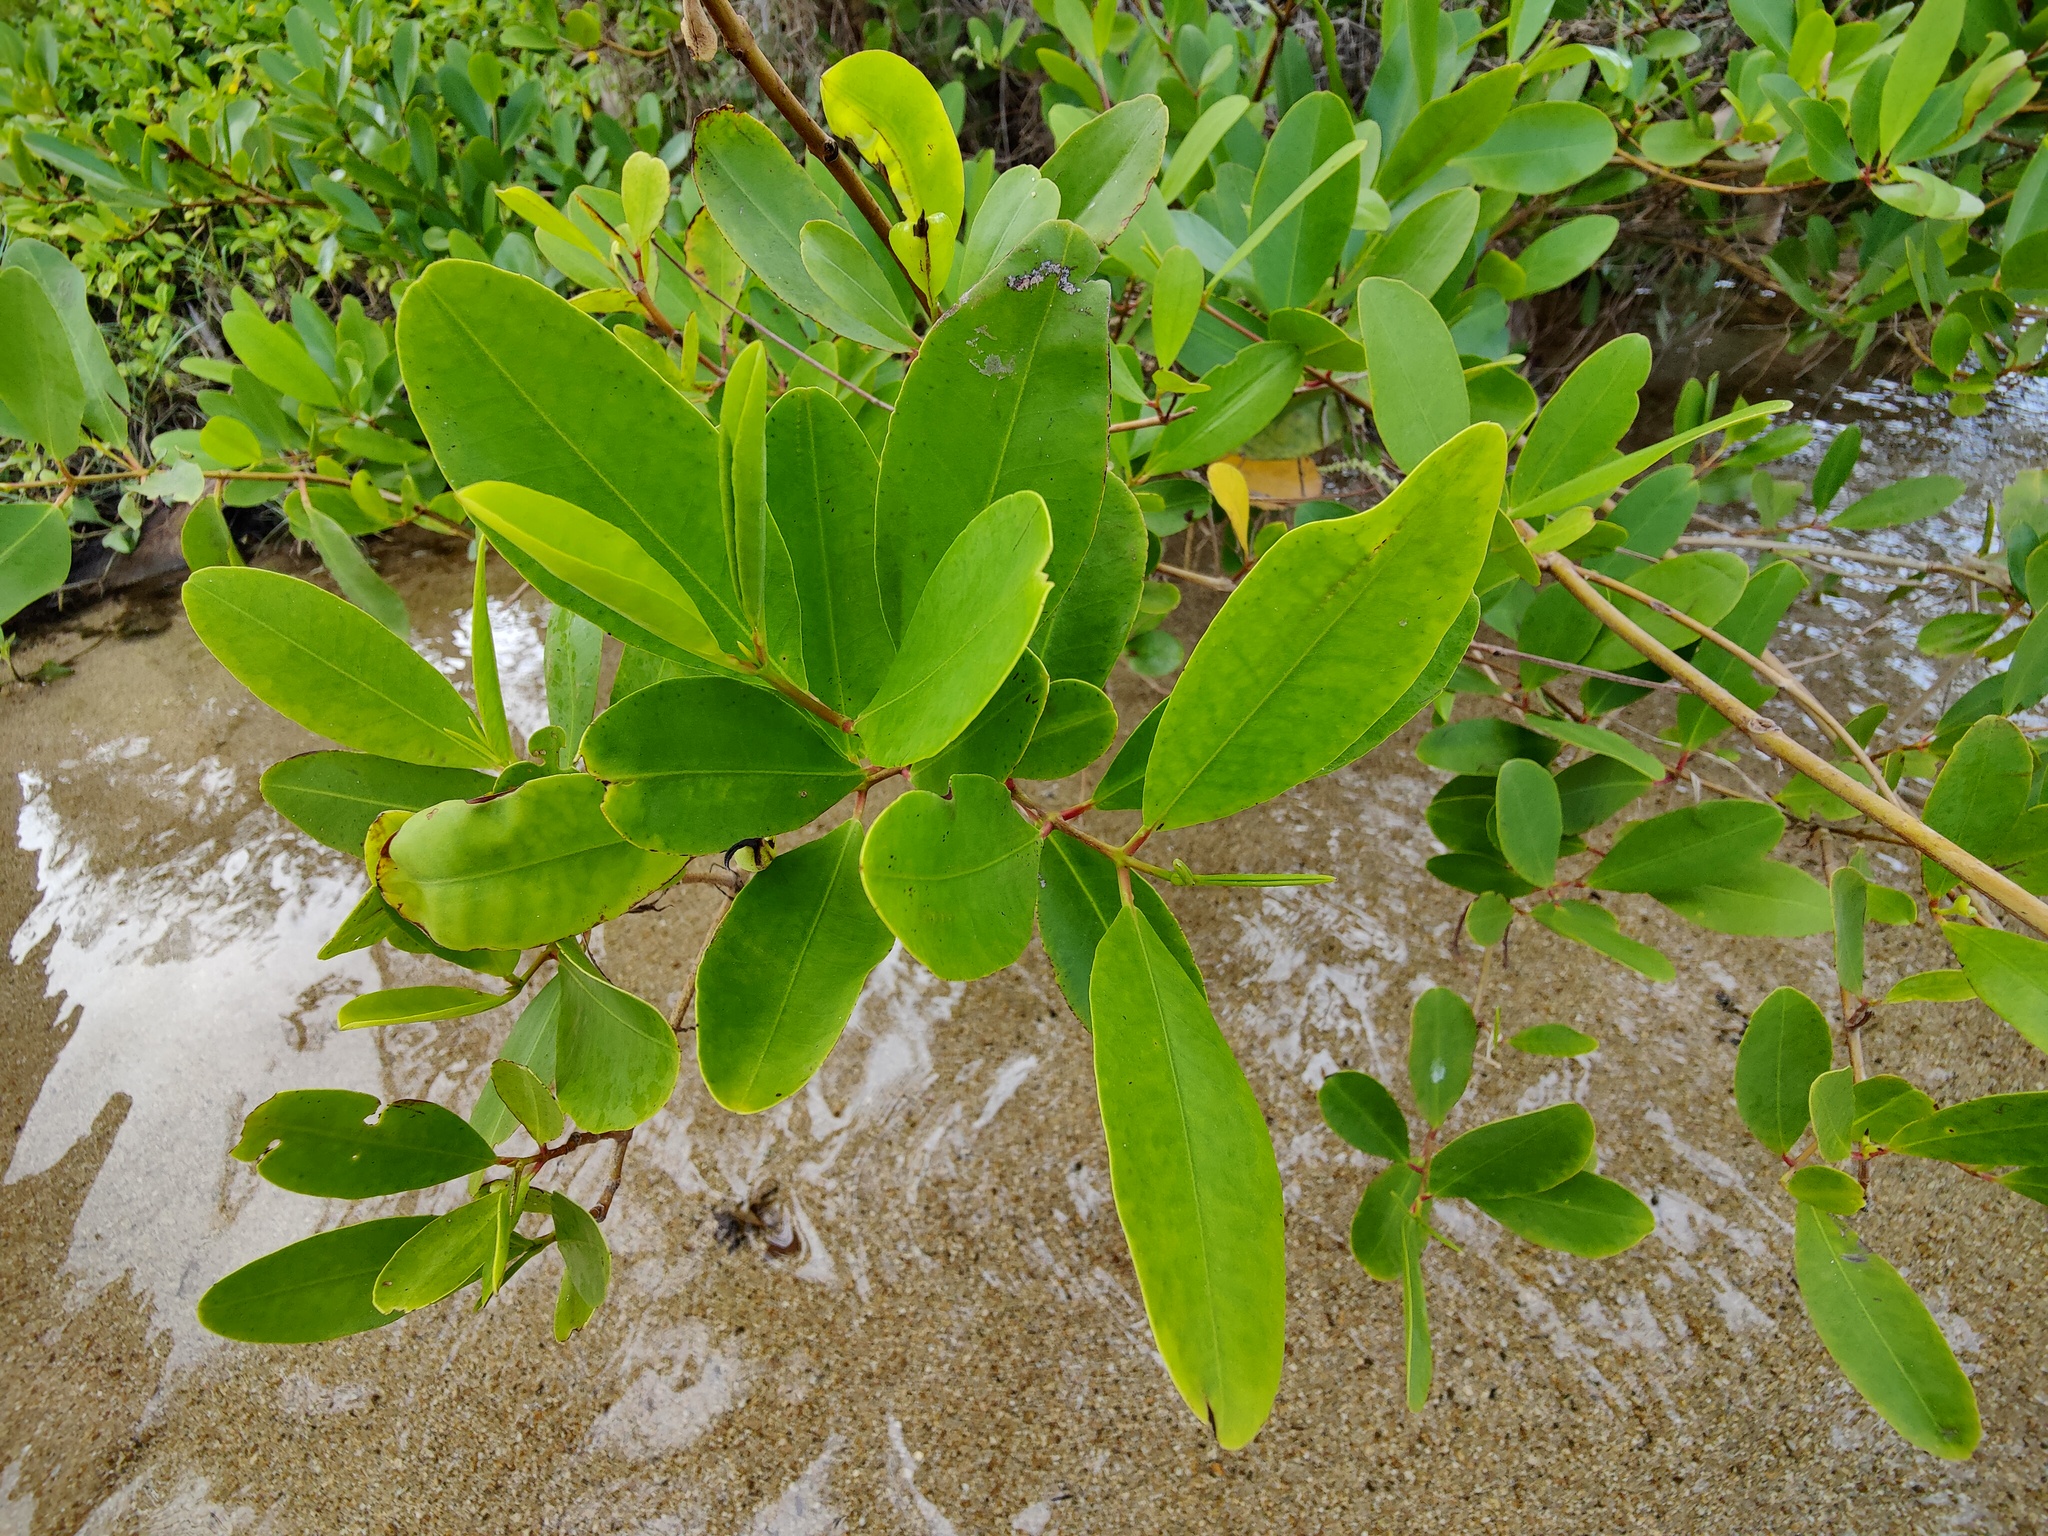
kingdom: Plantae
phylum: Tracheophyta
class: Magnoliopsida
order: Myrtales
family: Combretaceae
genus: Laguncularia
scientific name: Laguncularia racemosa
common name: White mangrove
